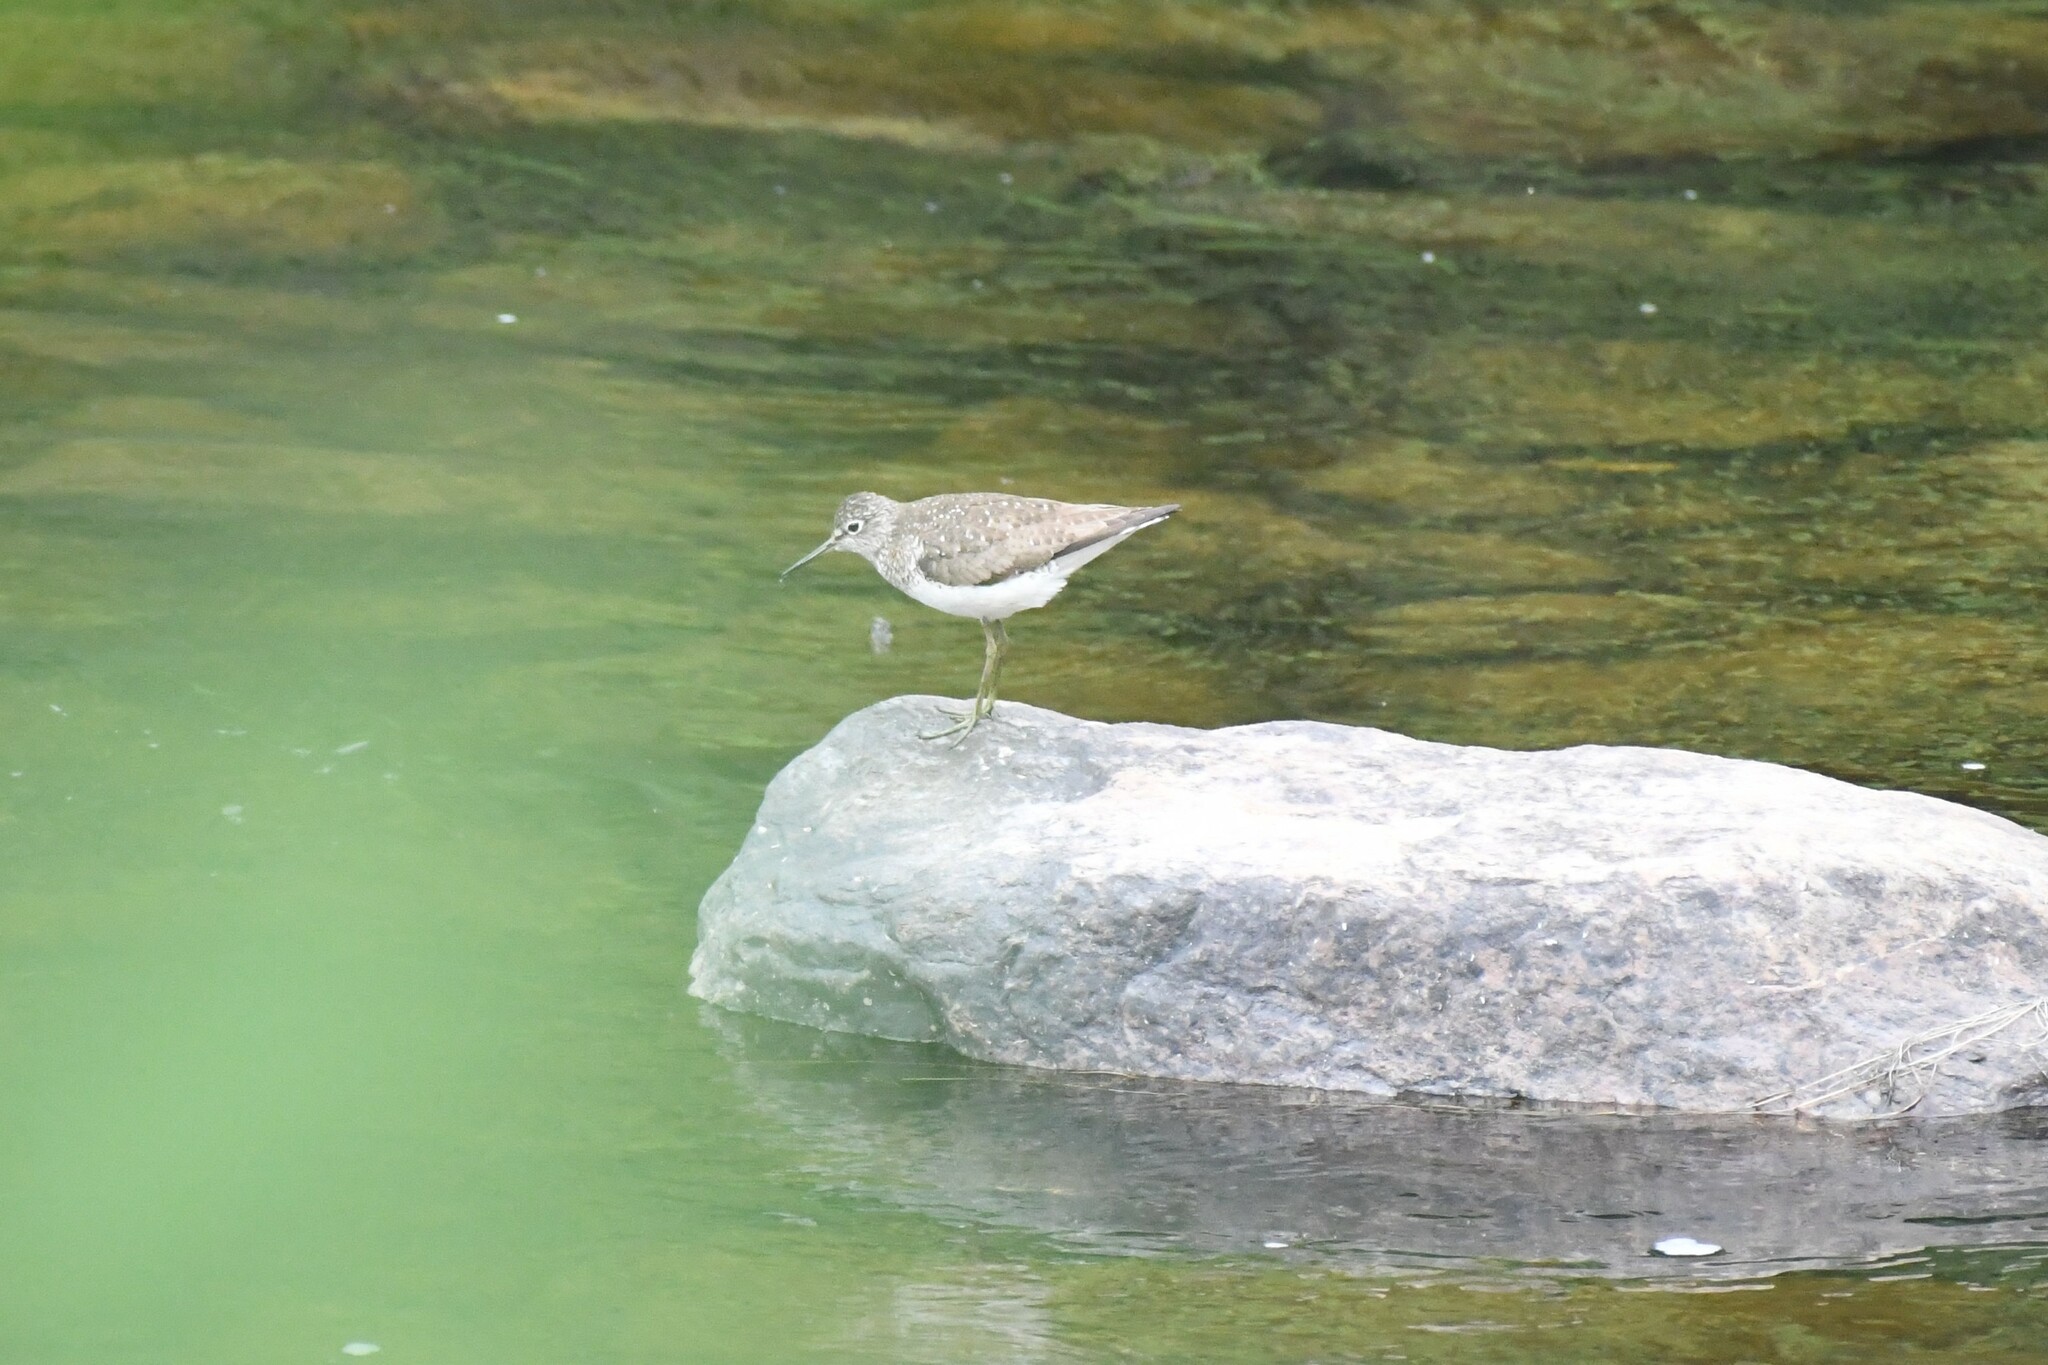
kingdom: Animalia
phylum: Chordata
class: Aves
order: Charadriiformes
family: Scolopacidae
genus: Tringa
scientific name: Tringa solitaria
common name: Solitary sandpiper
